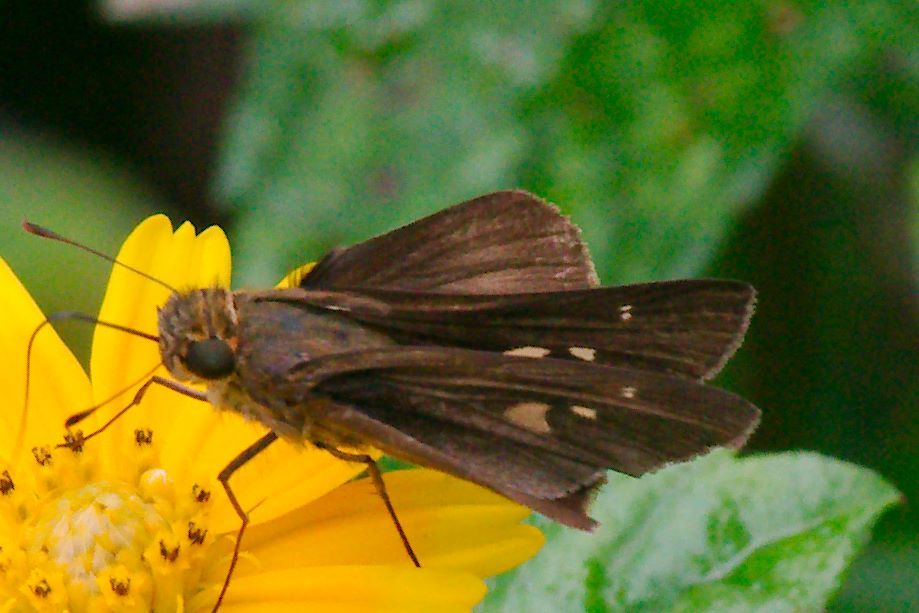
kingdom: Animalia
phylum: Arthropoda
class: Insecta
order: Lepidoptera
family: Hesperiidae
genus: Panoquina
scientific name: Panoquina ocola
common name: Ocola skipper
